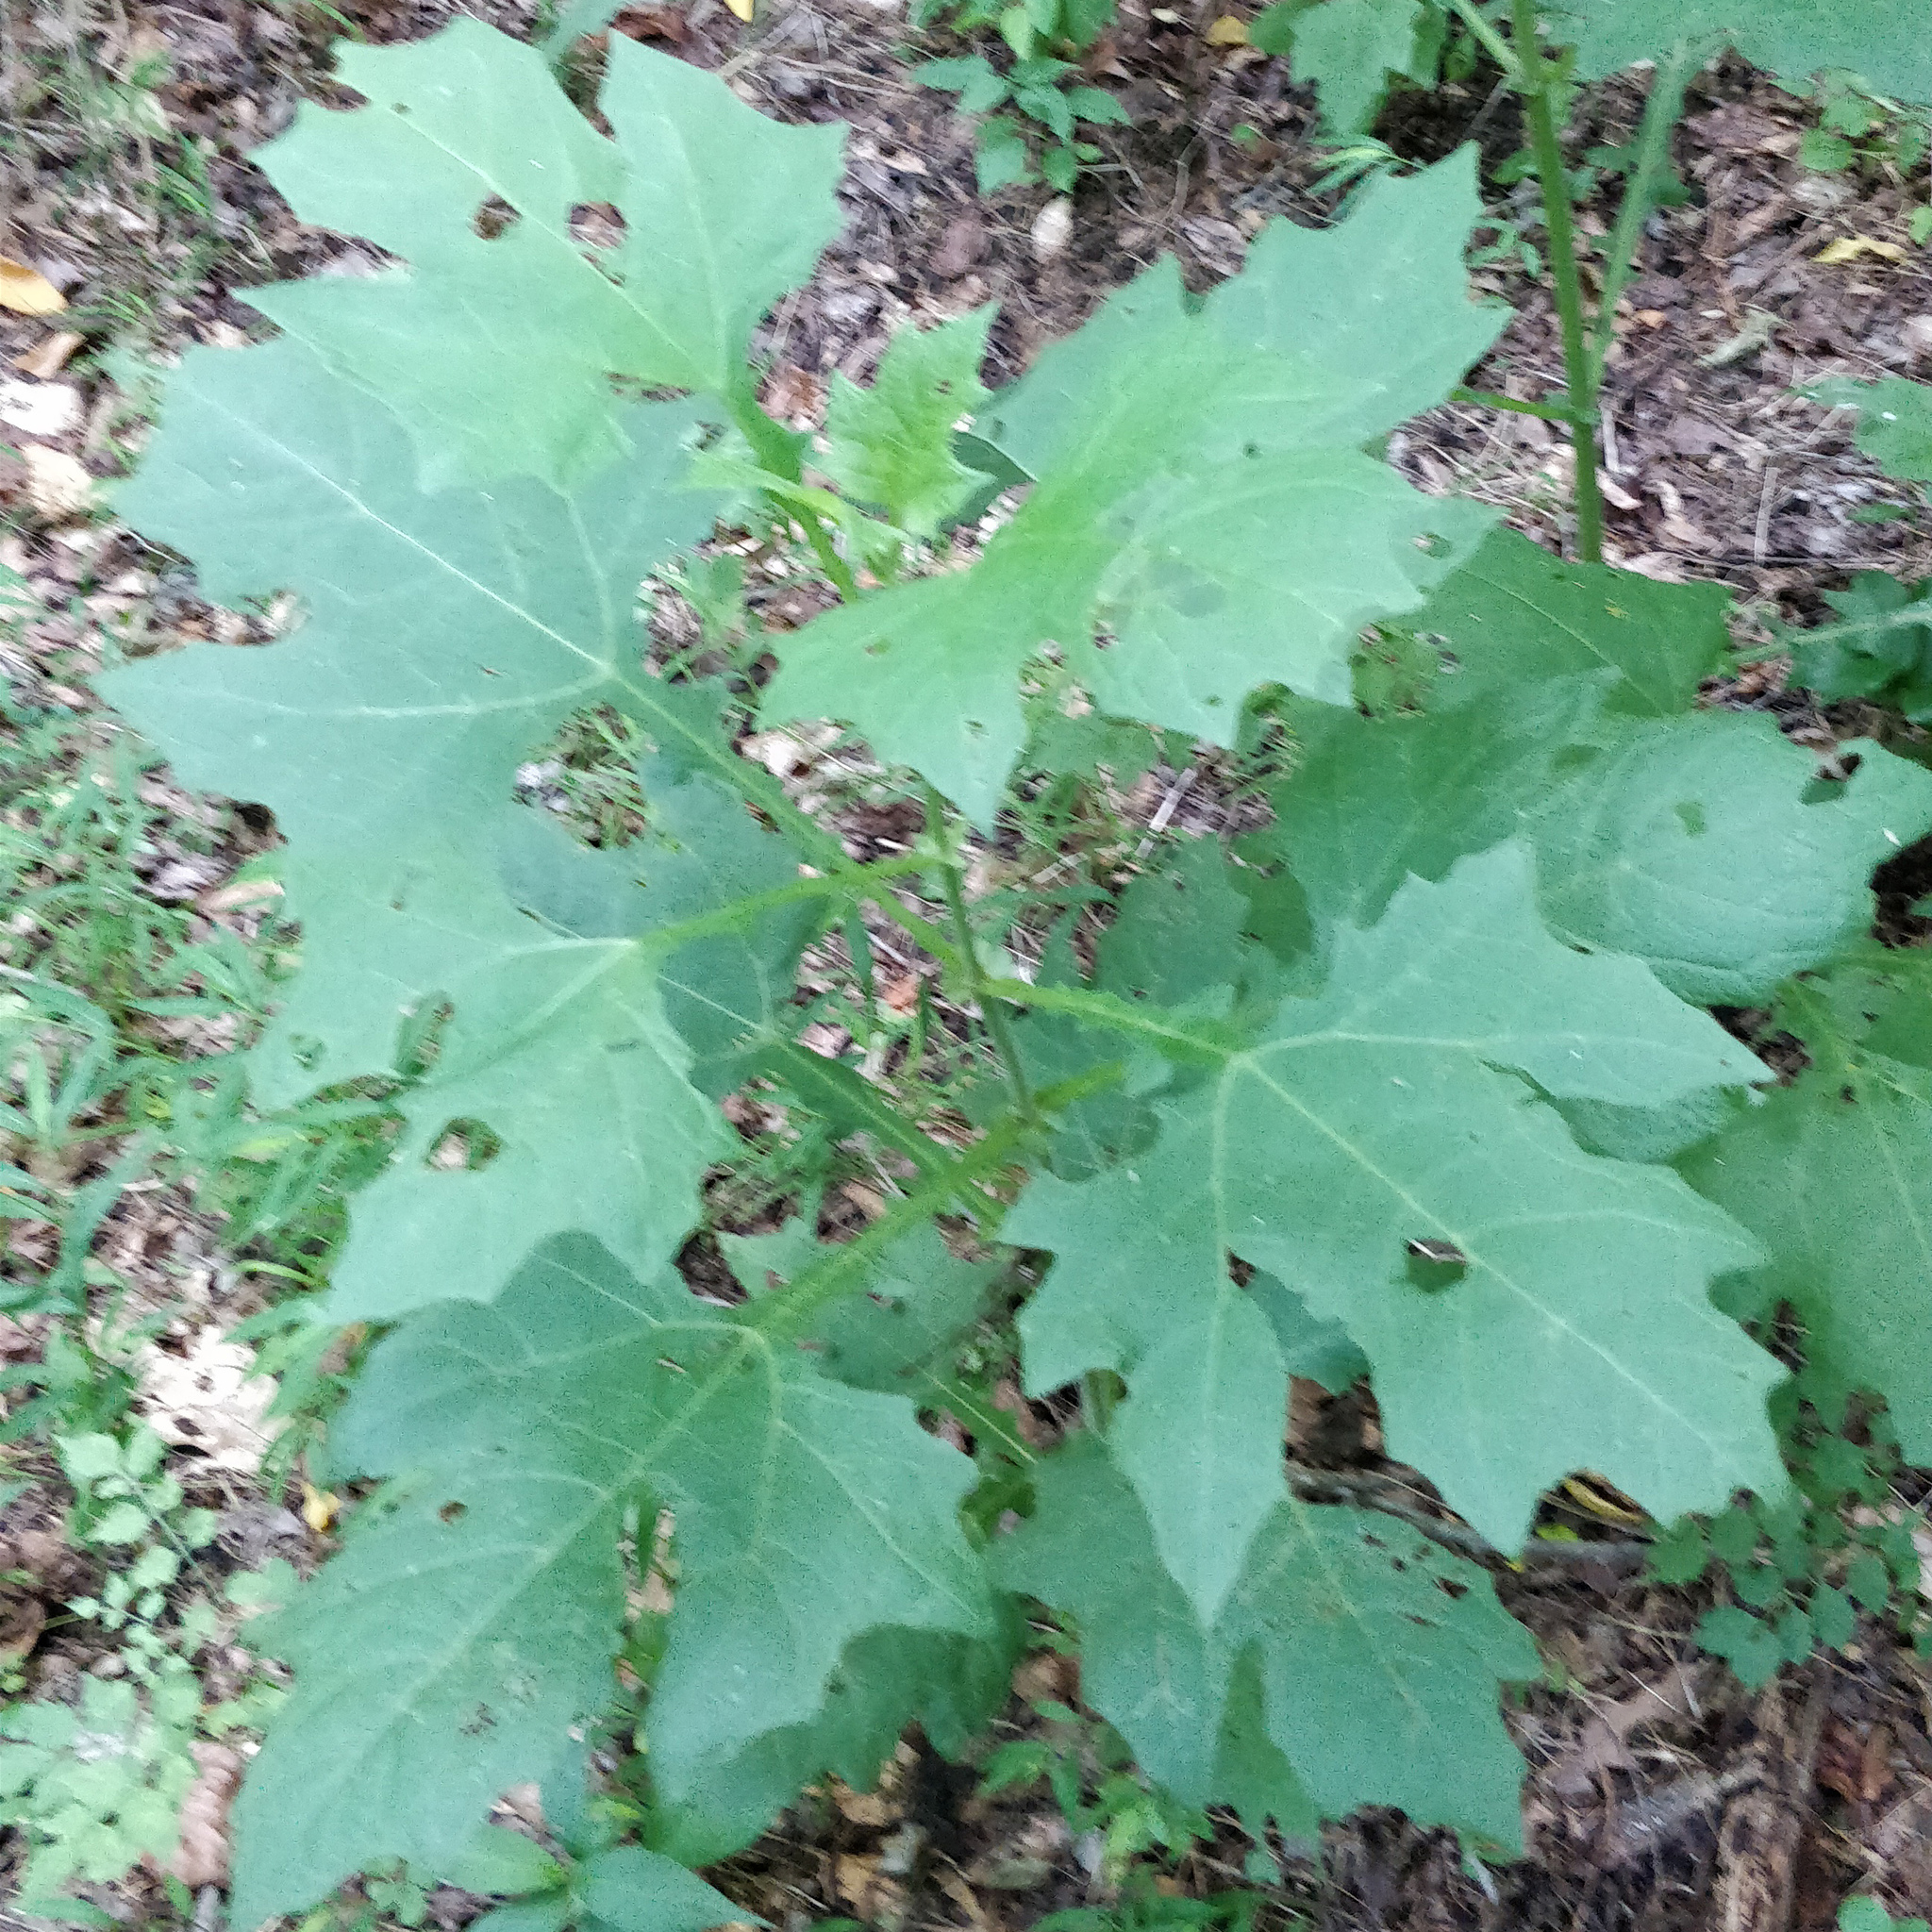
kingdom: Plantae
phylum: Tracheophyta
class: Magnoliopsida
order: Asterales
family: Asteraceae
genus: Smallanthus
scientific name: Smallanthus uvedalia
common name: Bear's-foot
